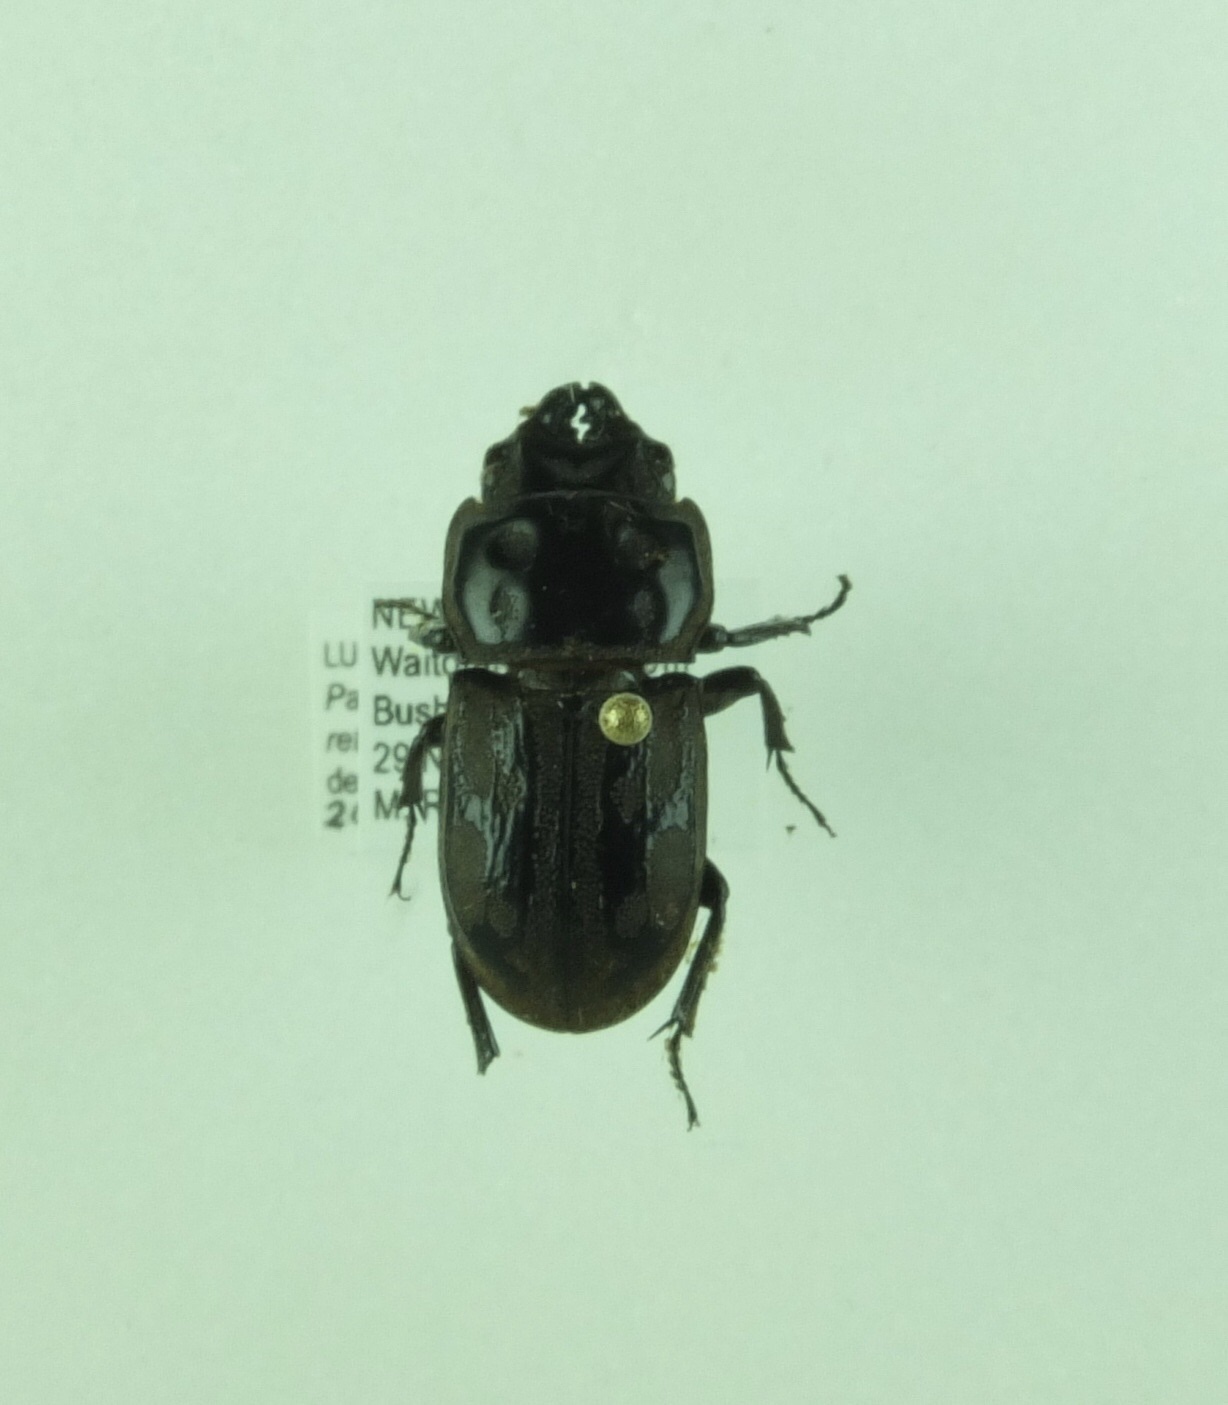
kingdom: Animalia
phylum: Arthropoda
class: Insecta
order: Coleoptera
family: Lucanidae
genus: Paralissotes
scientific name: Paralissotes reticulatus
